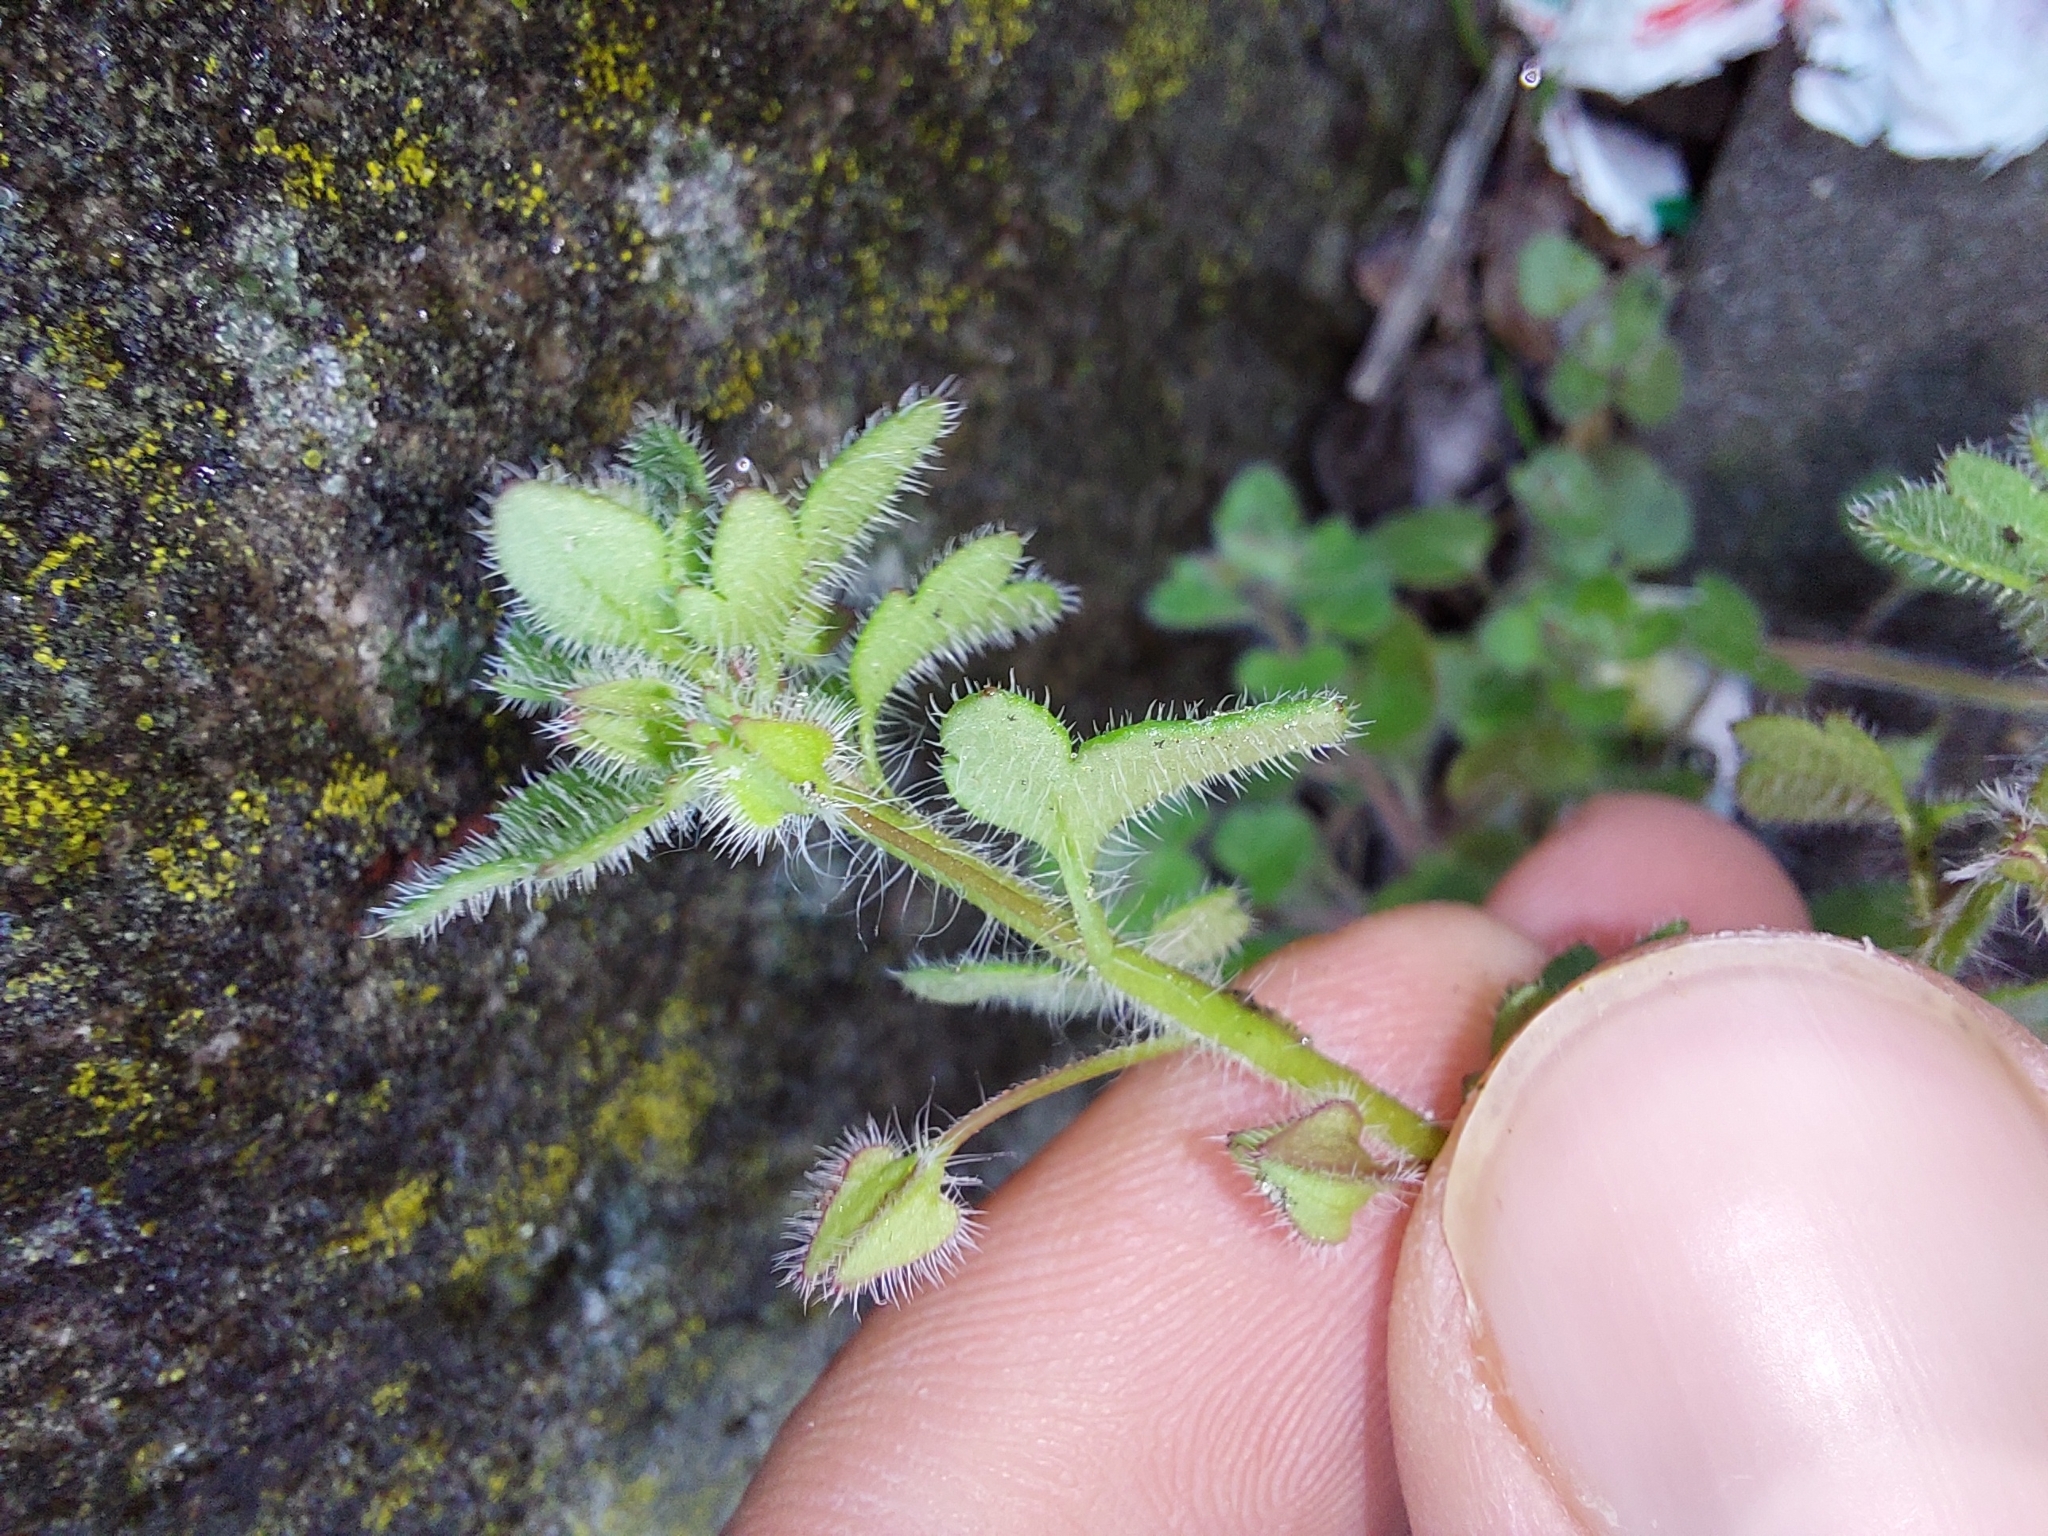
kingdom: Plantae
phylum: Tracheophyta
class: Magnoliopsida
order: Lamiales
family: Plantaginaceae
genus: Veronica
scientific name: Veronica hederifolia
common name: Ivy-leaved speedwell
